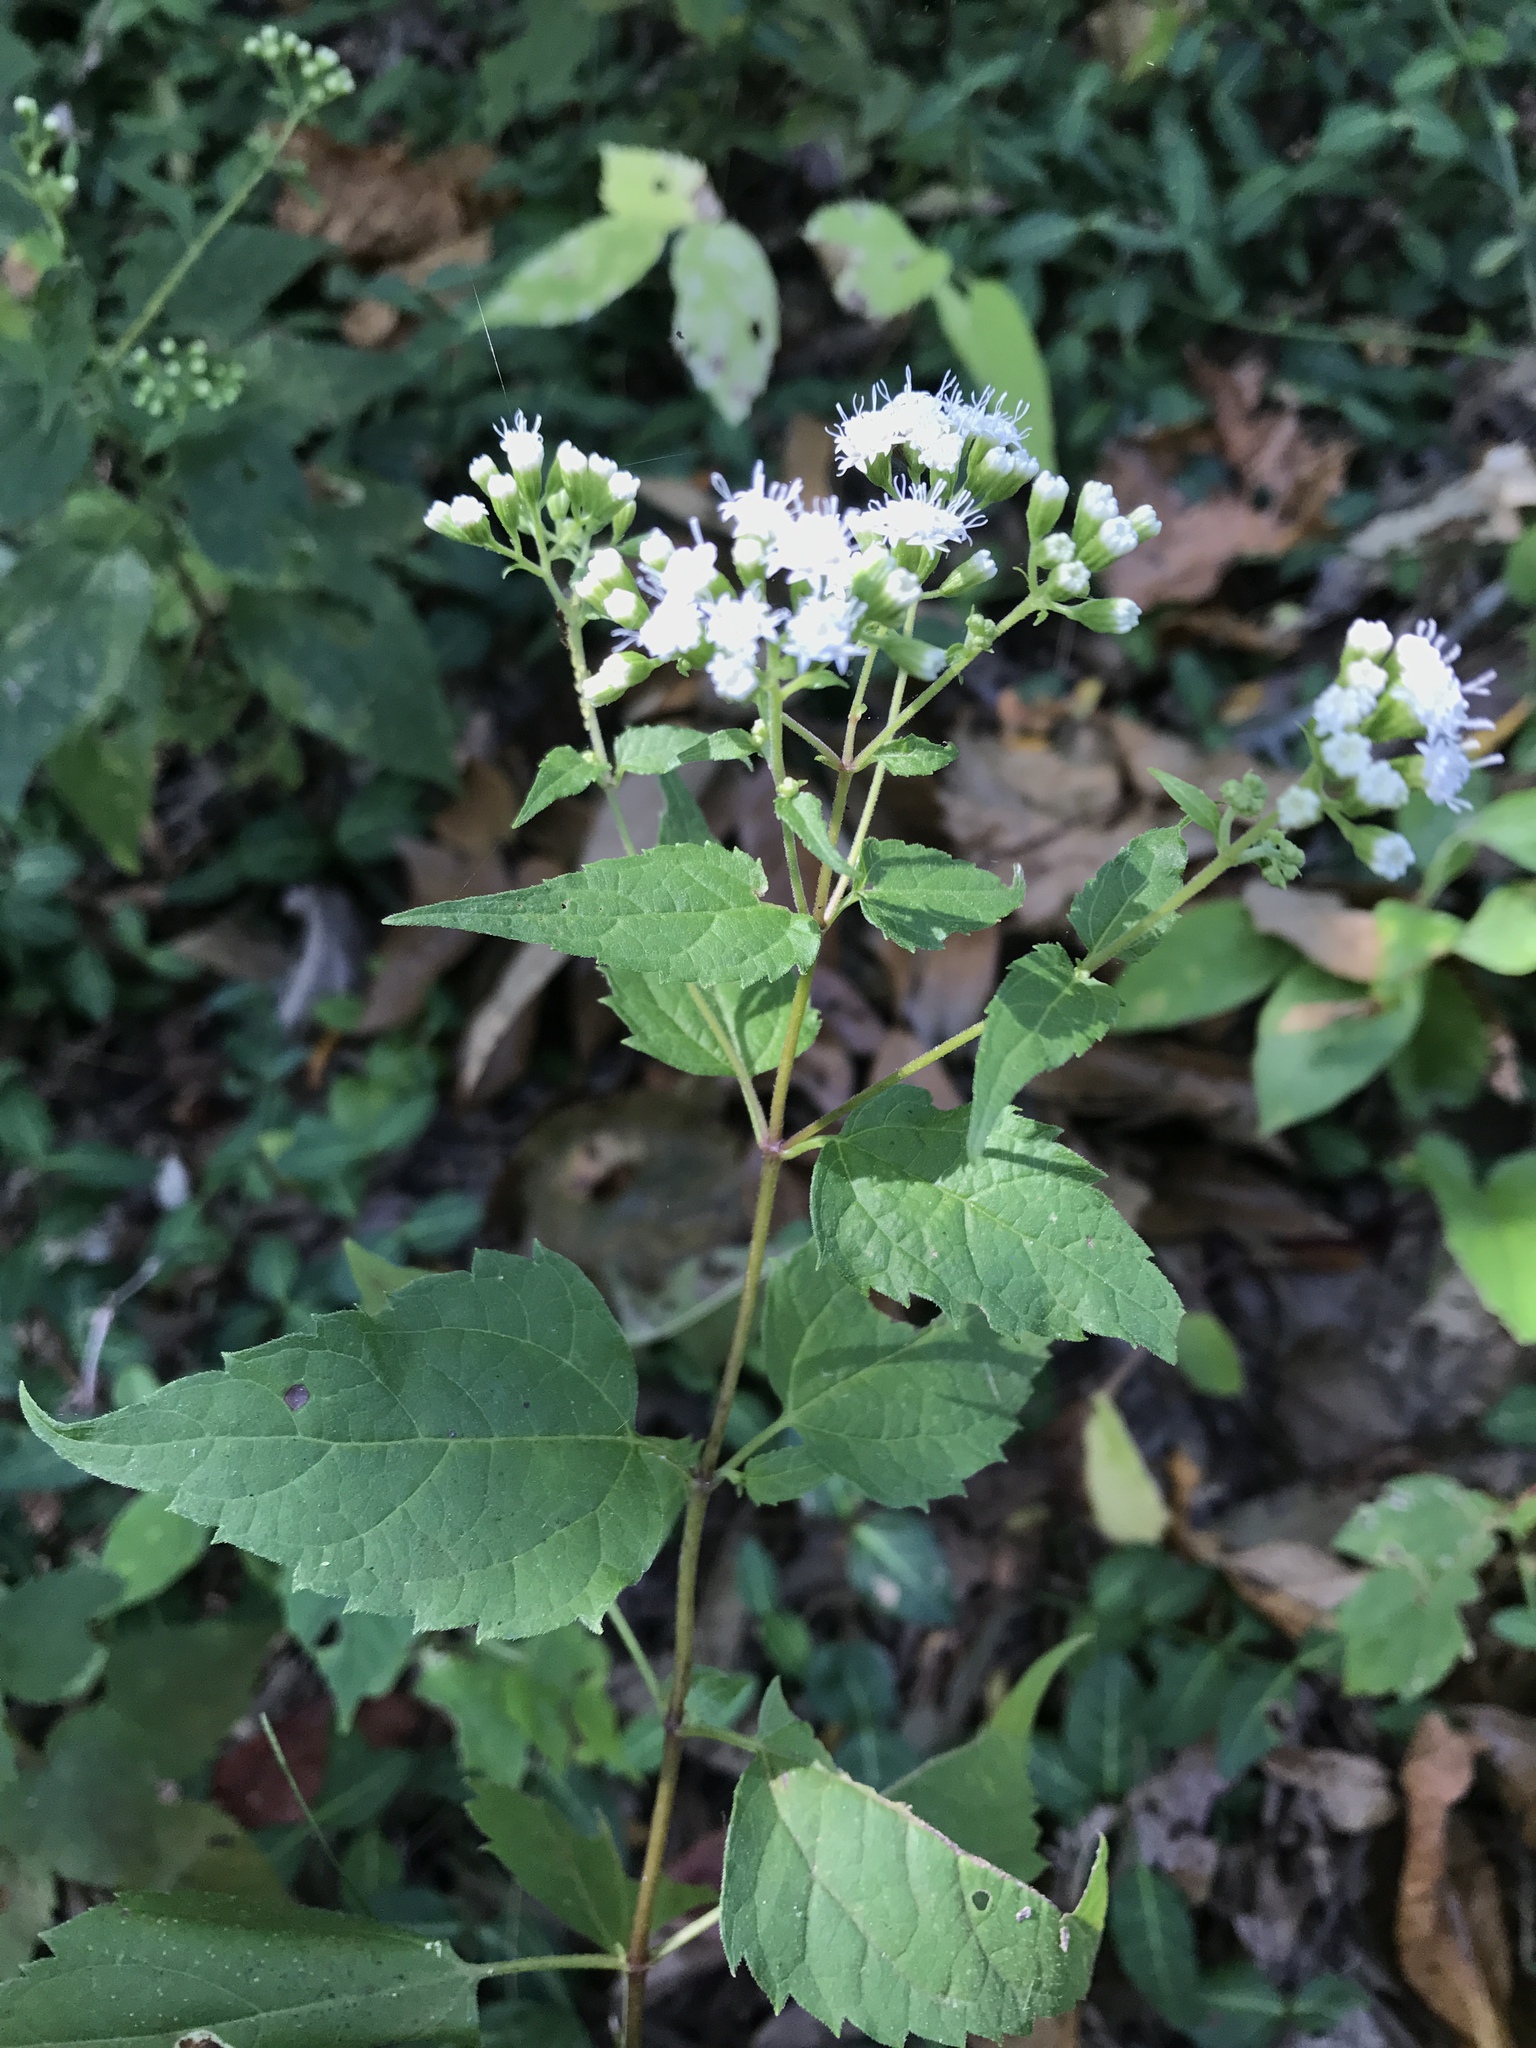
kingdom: Plantae
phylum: Tracheophyta
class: Magnoliopsida
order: Asterales
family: Asteraceae
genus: Ageratina
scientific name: Ageratina altissima
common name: White snakeroot
